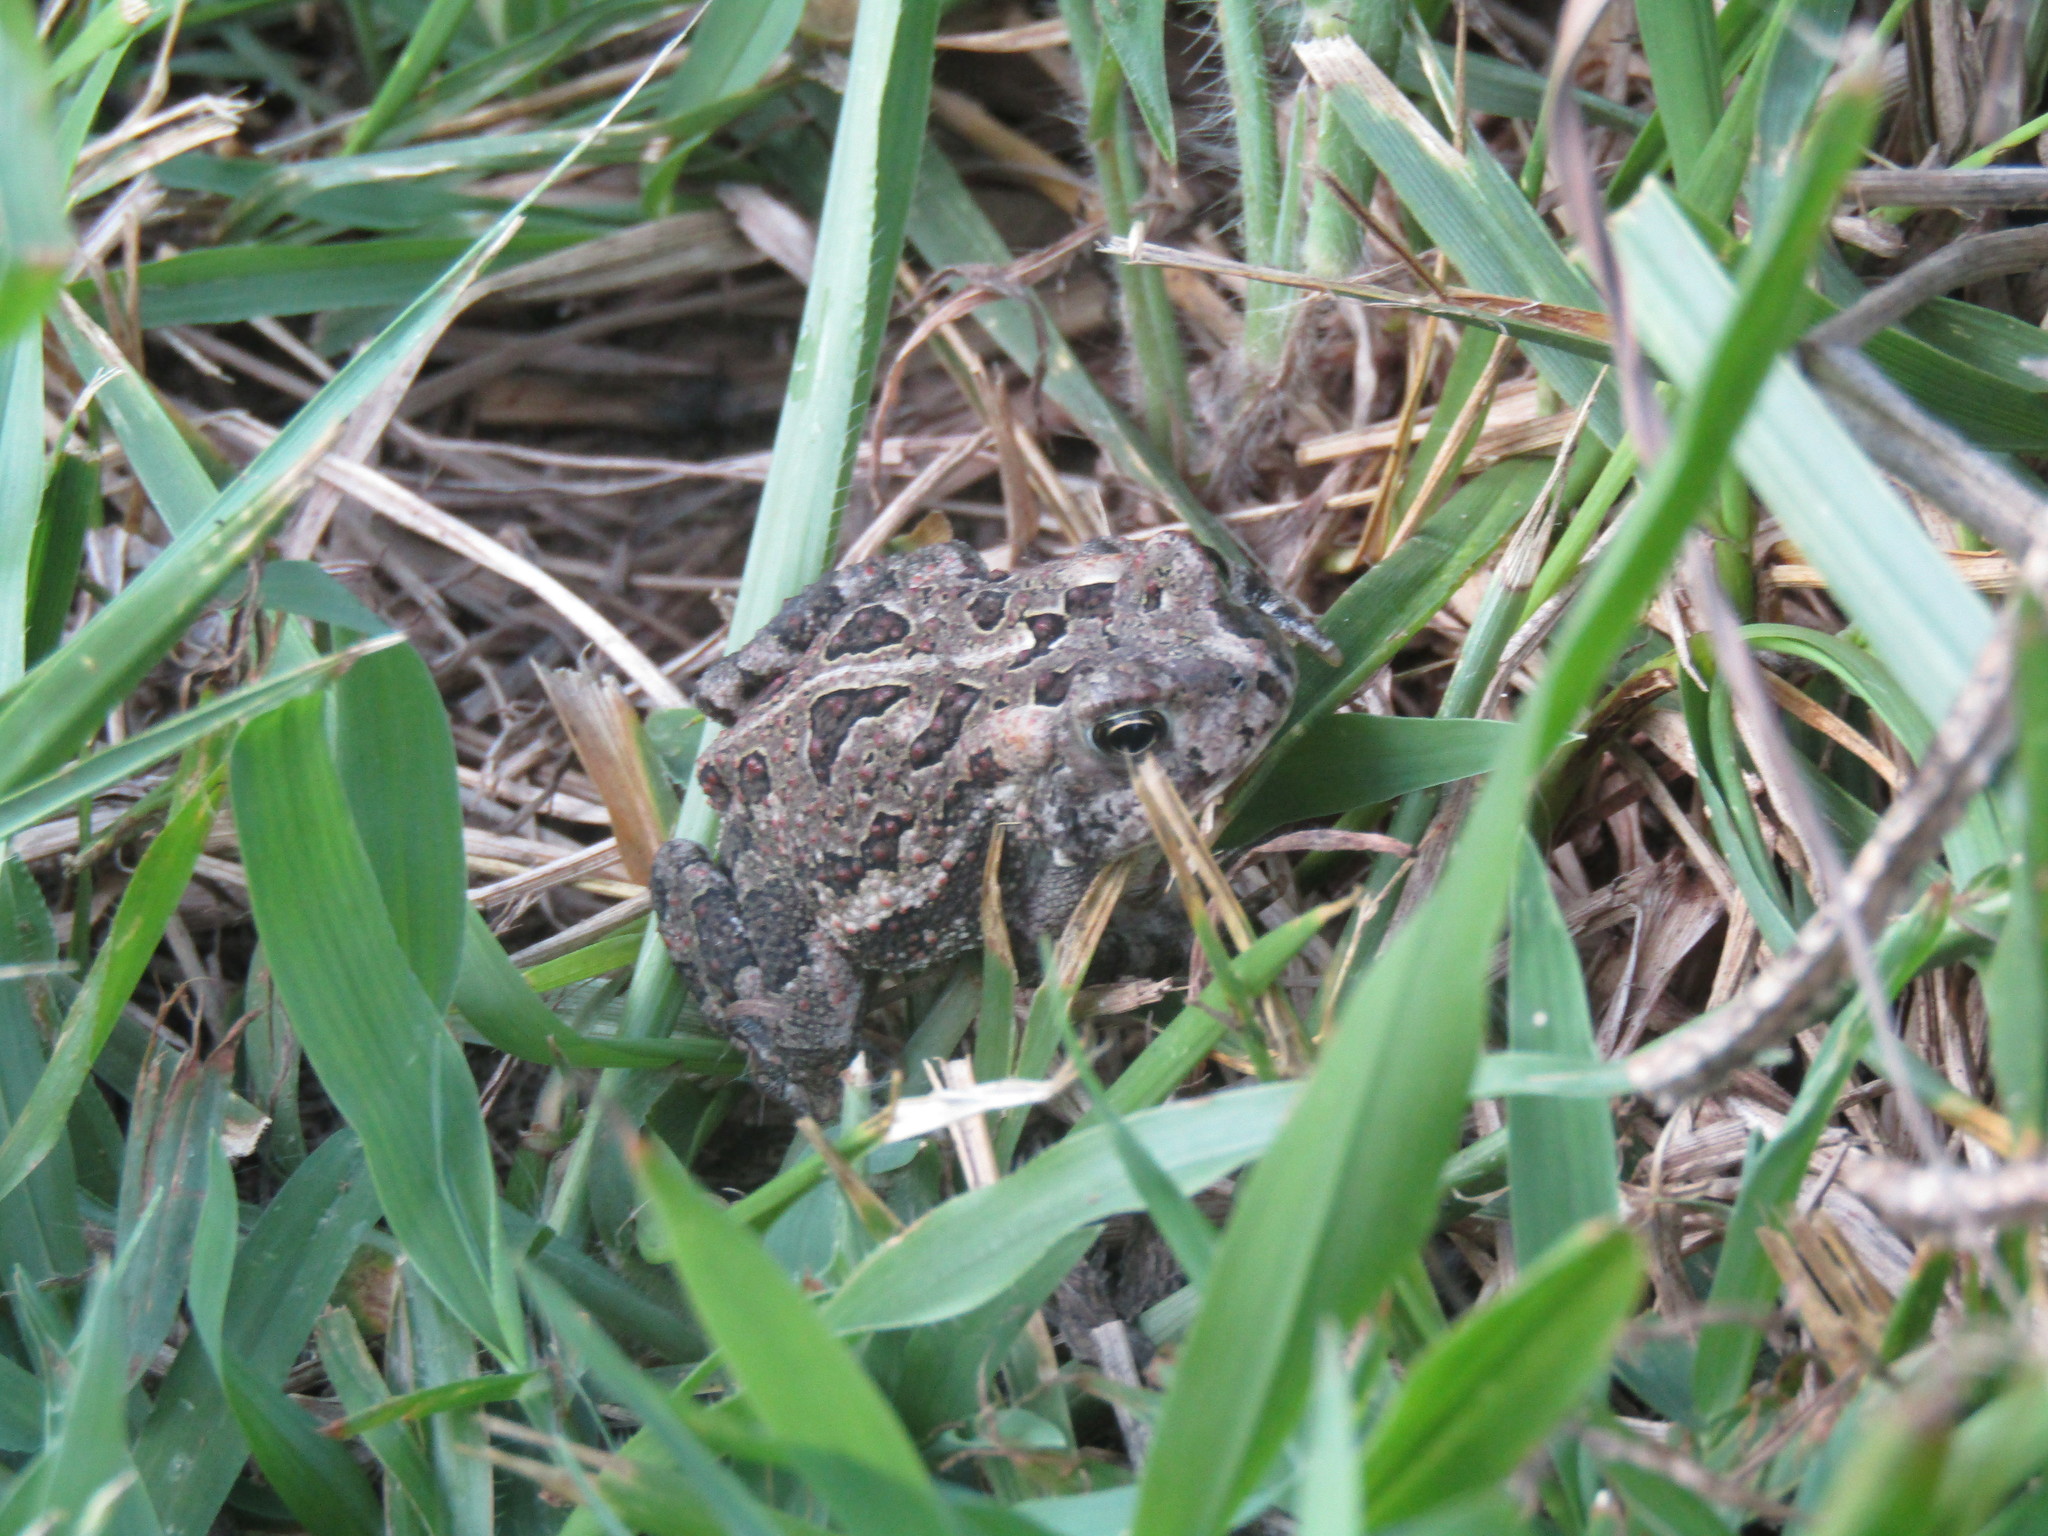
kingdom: Animalia
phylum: Chordata
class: Amphibia
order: Anura
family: Bufonidae
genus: Anaxyrus
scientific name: Anaxyrus fowleri
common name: Fowler's toad
